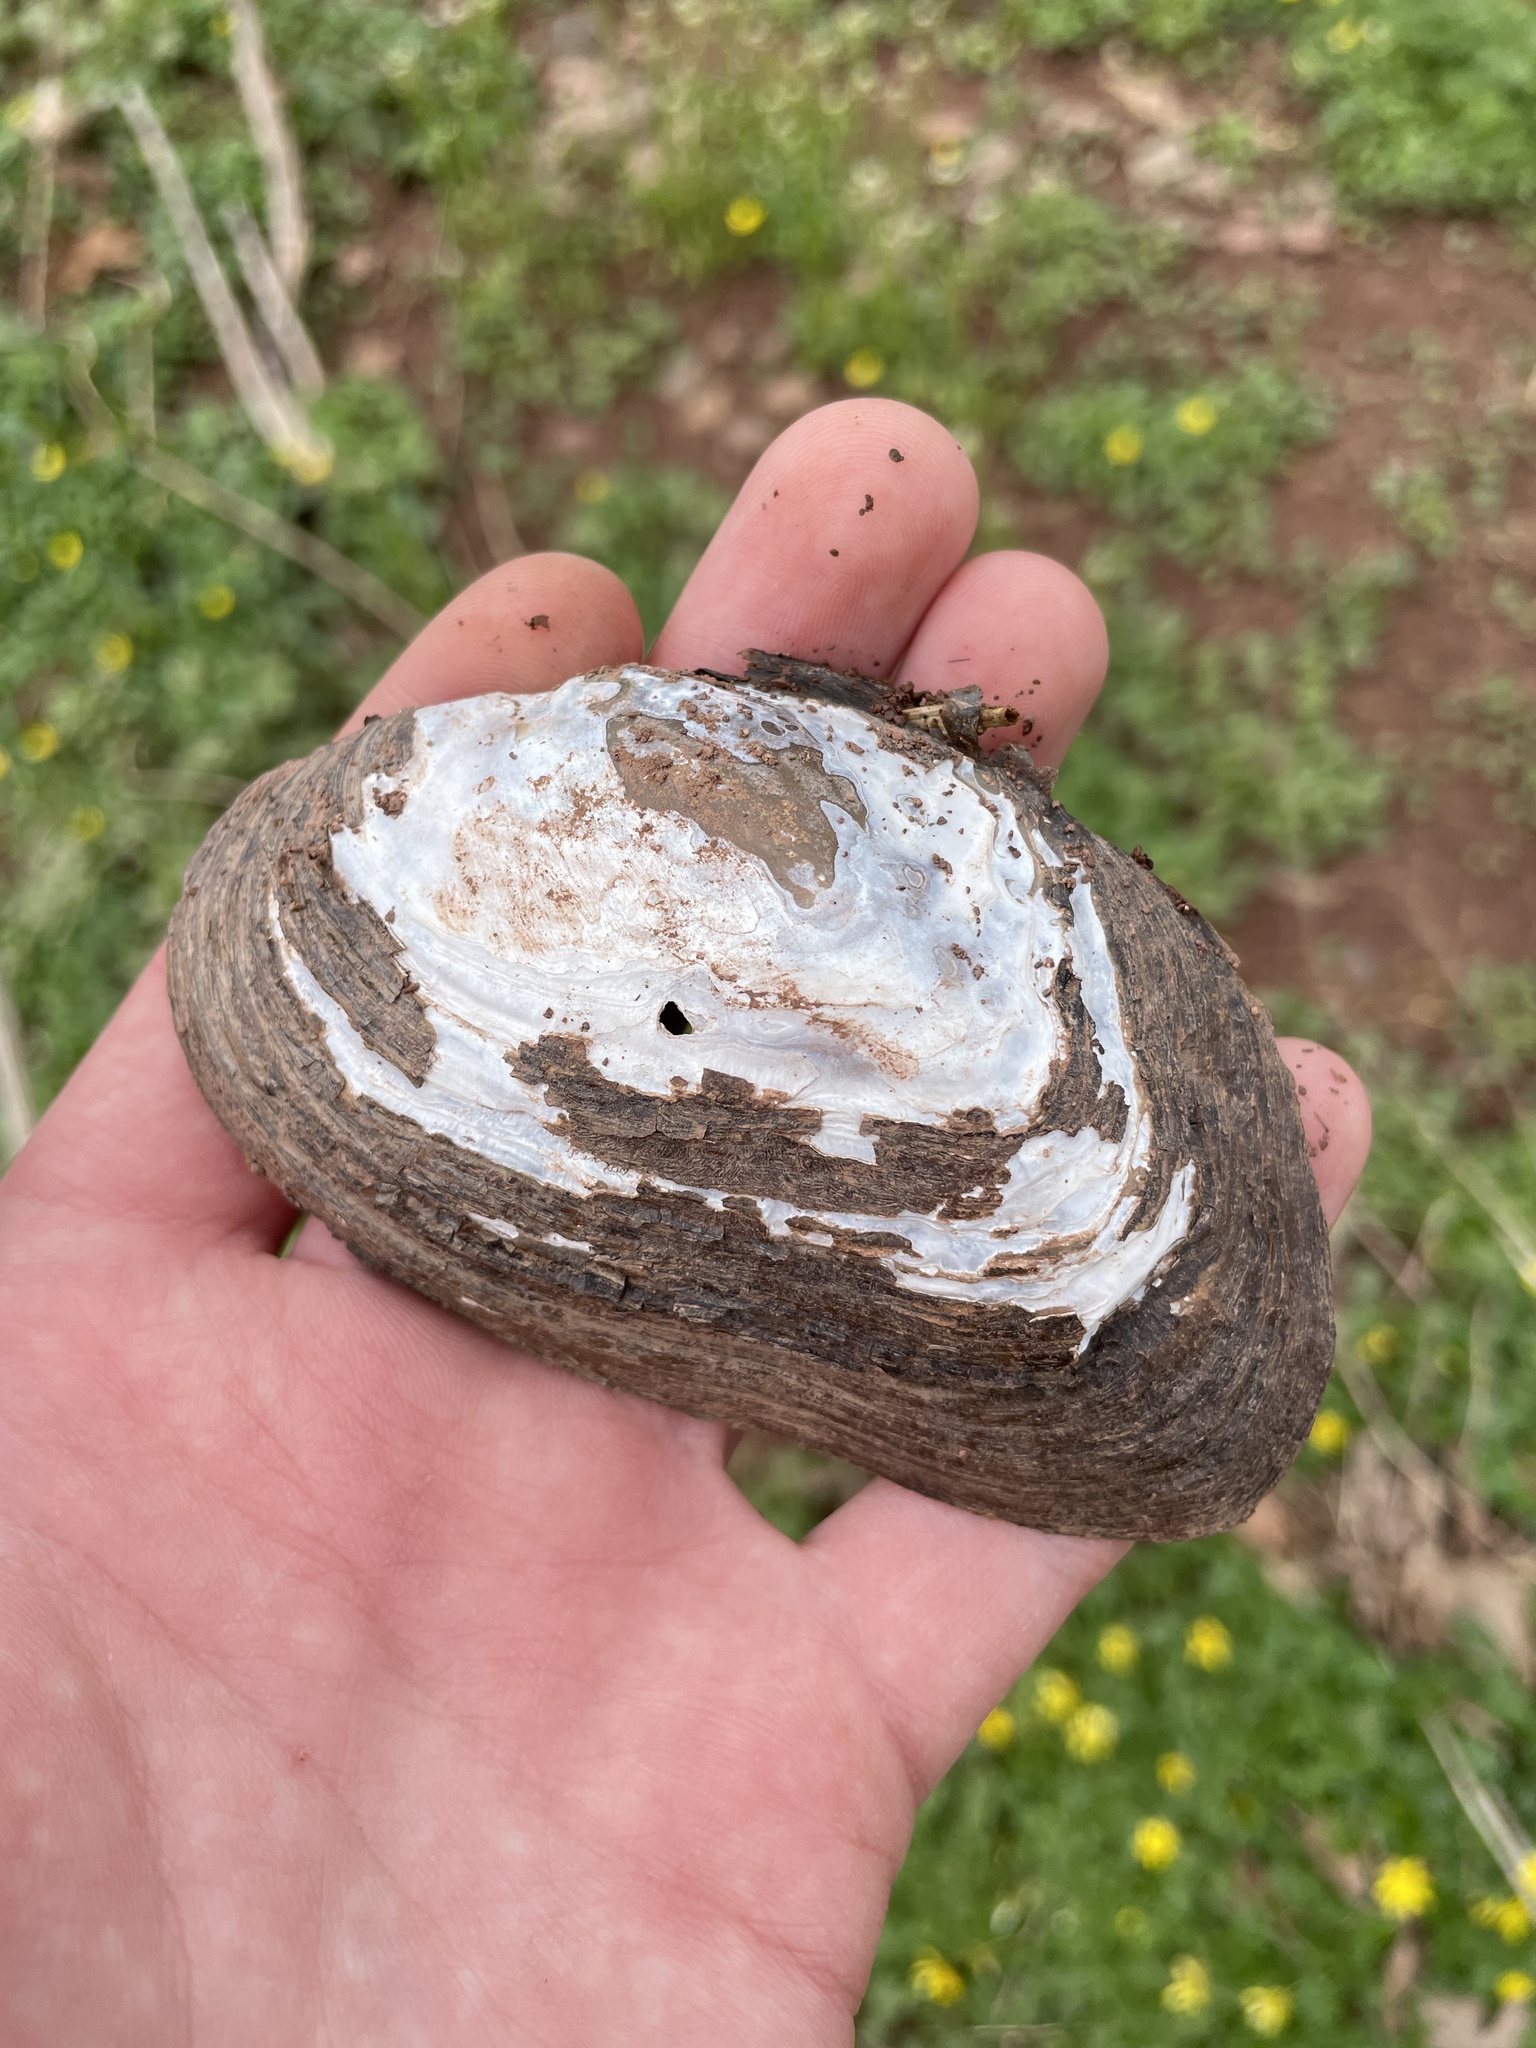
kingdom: Animalia
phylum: Mollusca
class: Bivalvia
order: Unionida
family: Unionidae
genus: Elliptio
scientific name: Elliptio complanata
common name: Eastern elliptio
